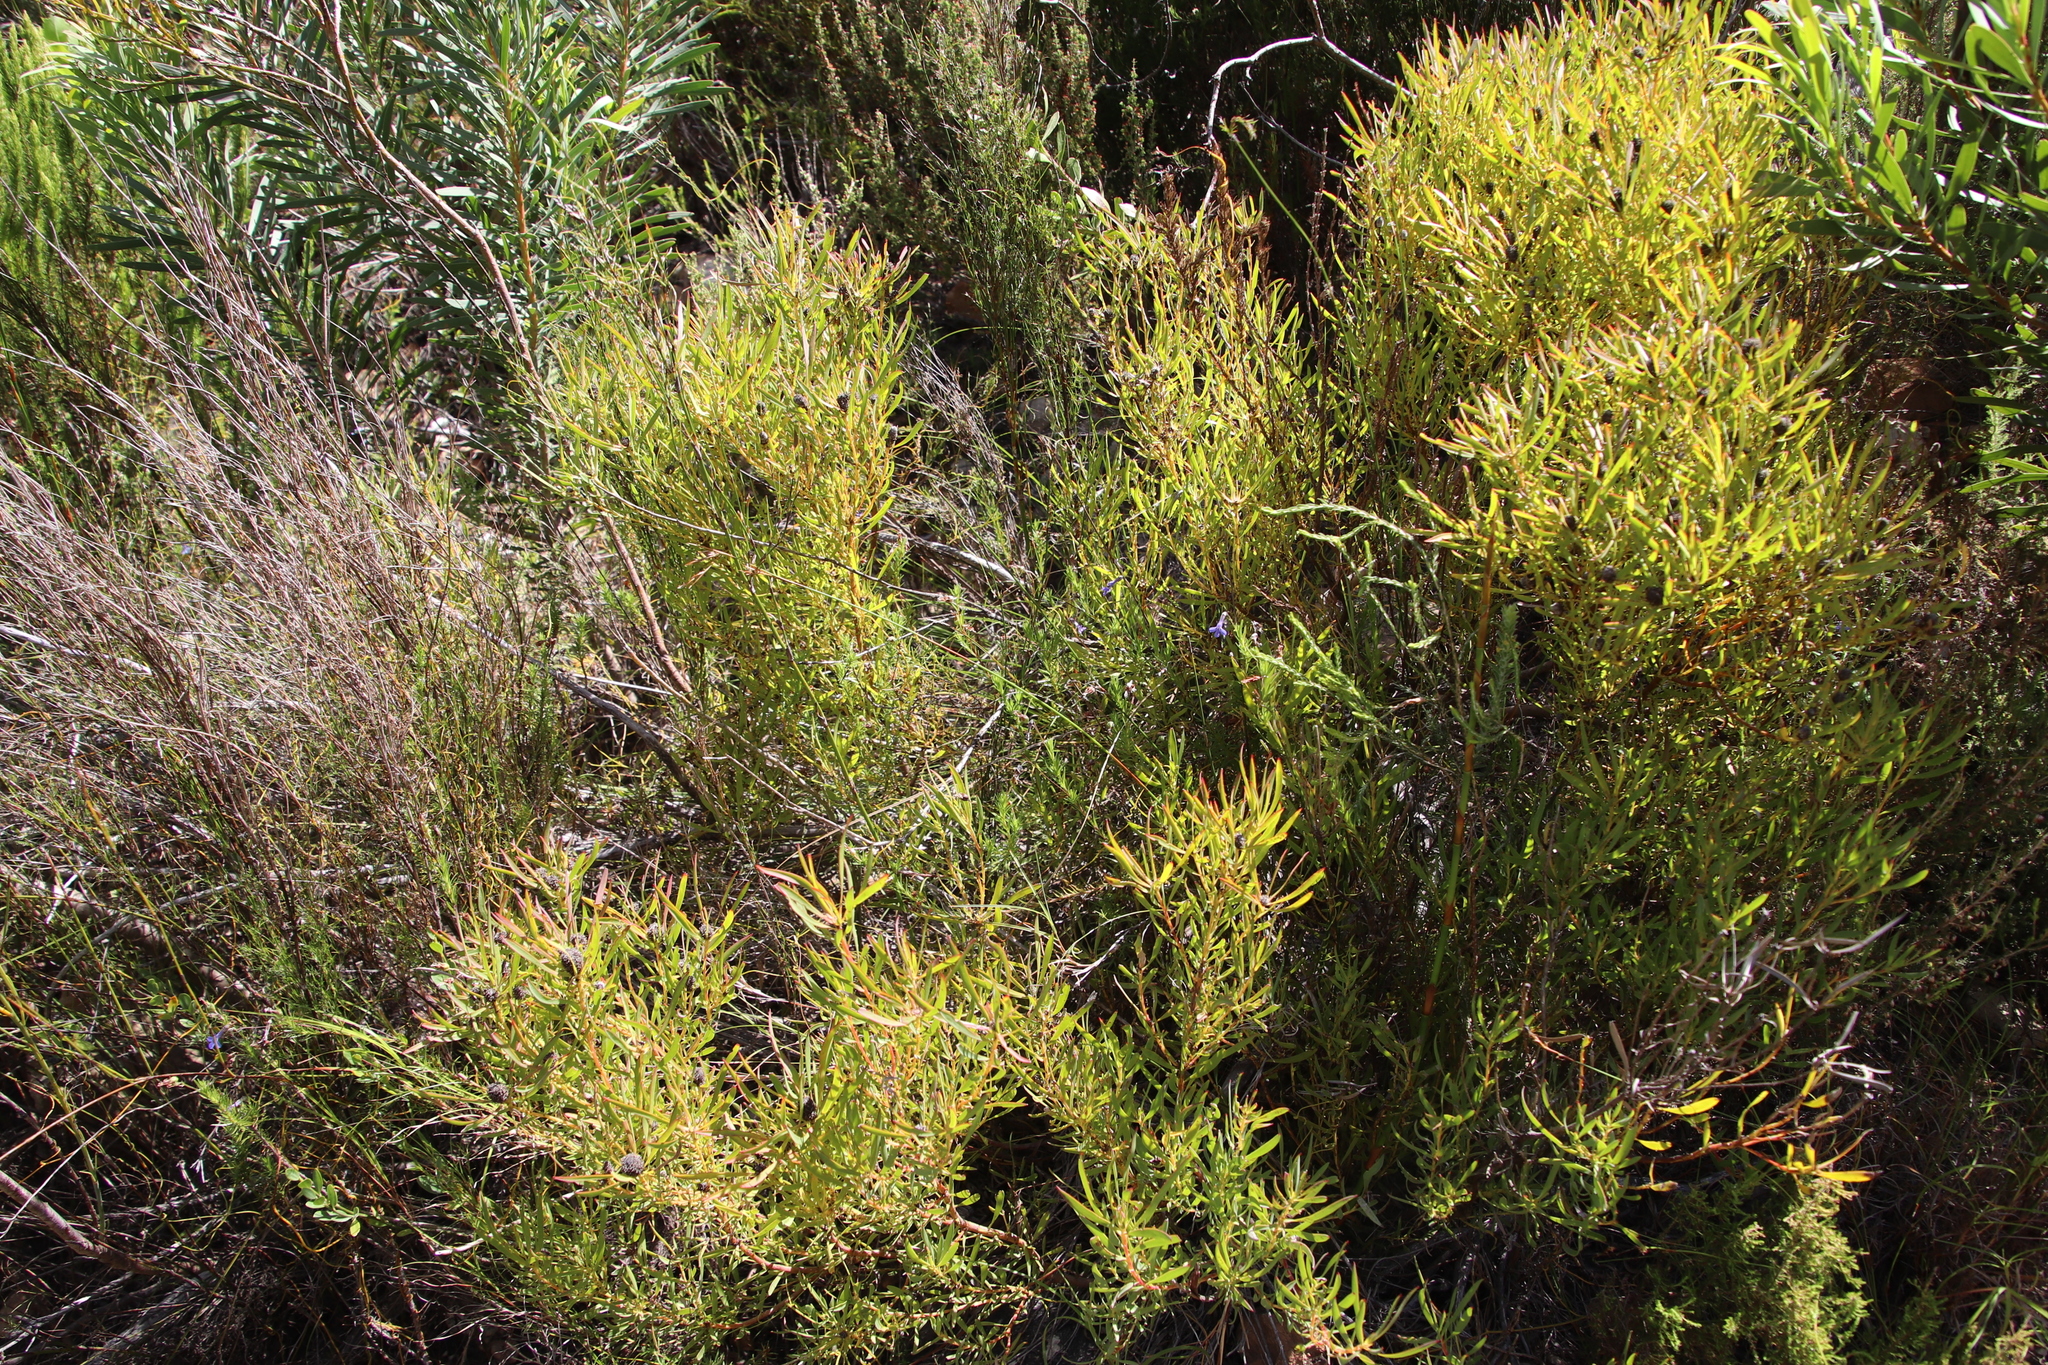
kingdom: Plantae
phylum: Tracheophyta
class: Magnoliopsida
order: Proteales
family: Proteaceae
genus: Leucadendron
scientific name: Leucadendron salignum
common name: Common sunshine conebush
